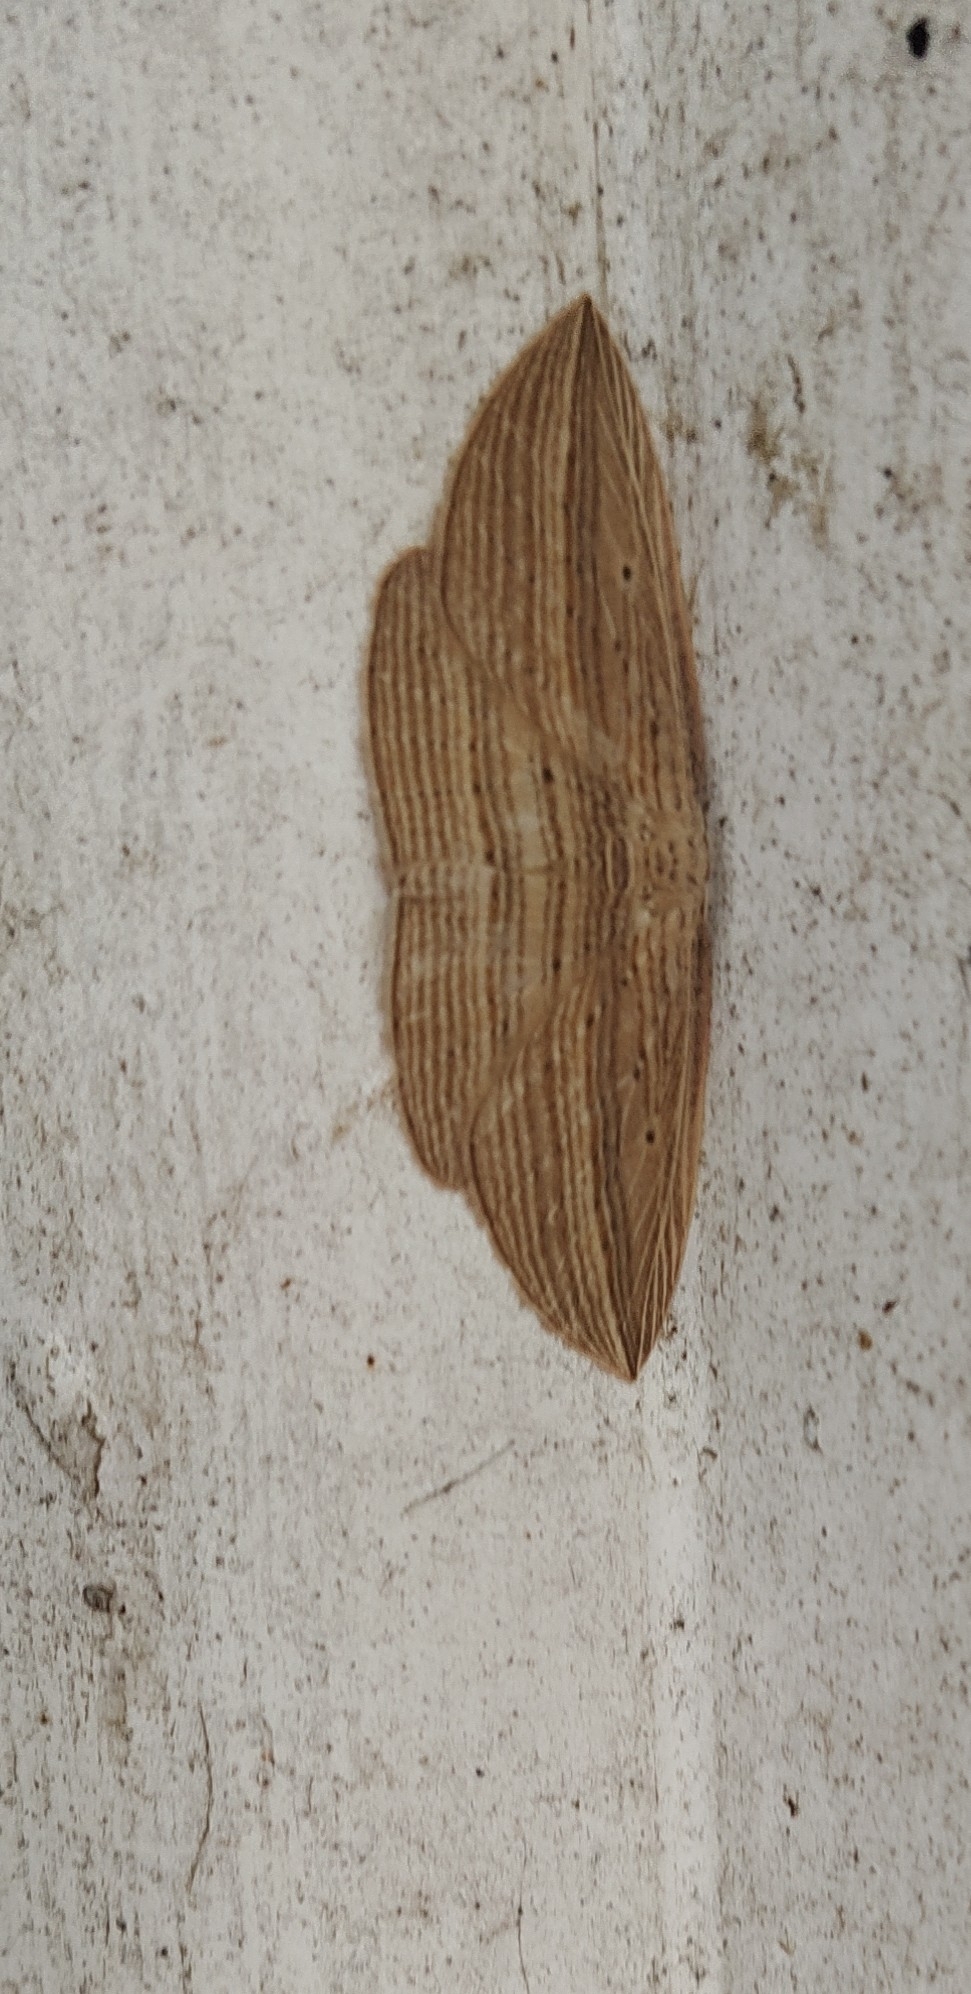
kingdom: Animalia
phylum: Arthropoda
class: Insecta
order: Lepidoptera
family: Geometridae
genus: Epiphryne
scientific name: Epiphryne verriculata
